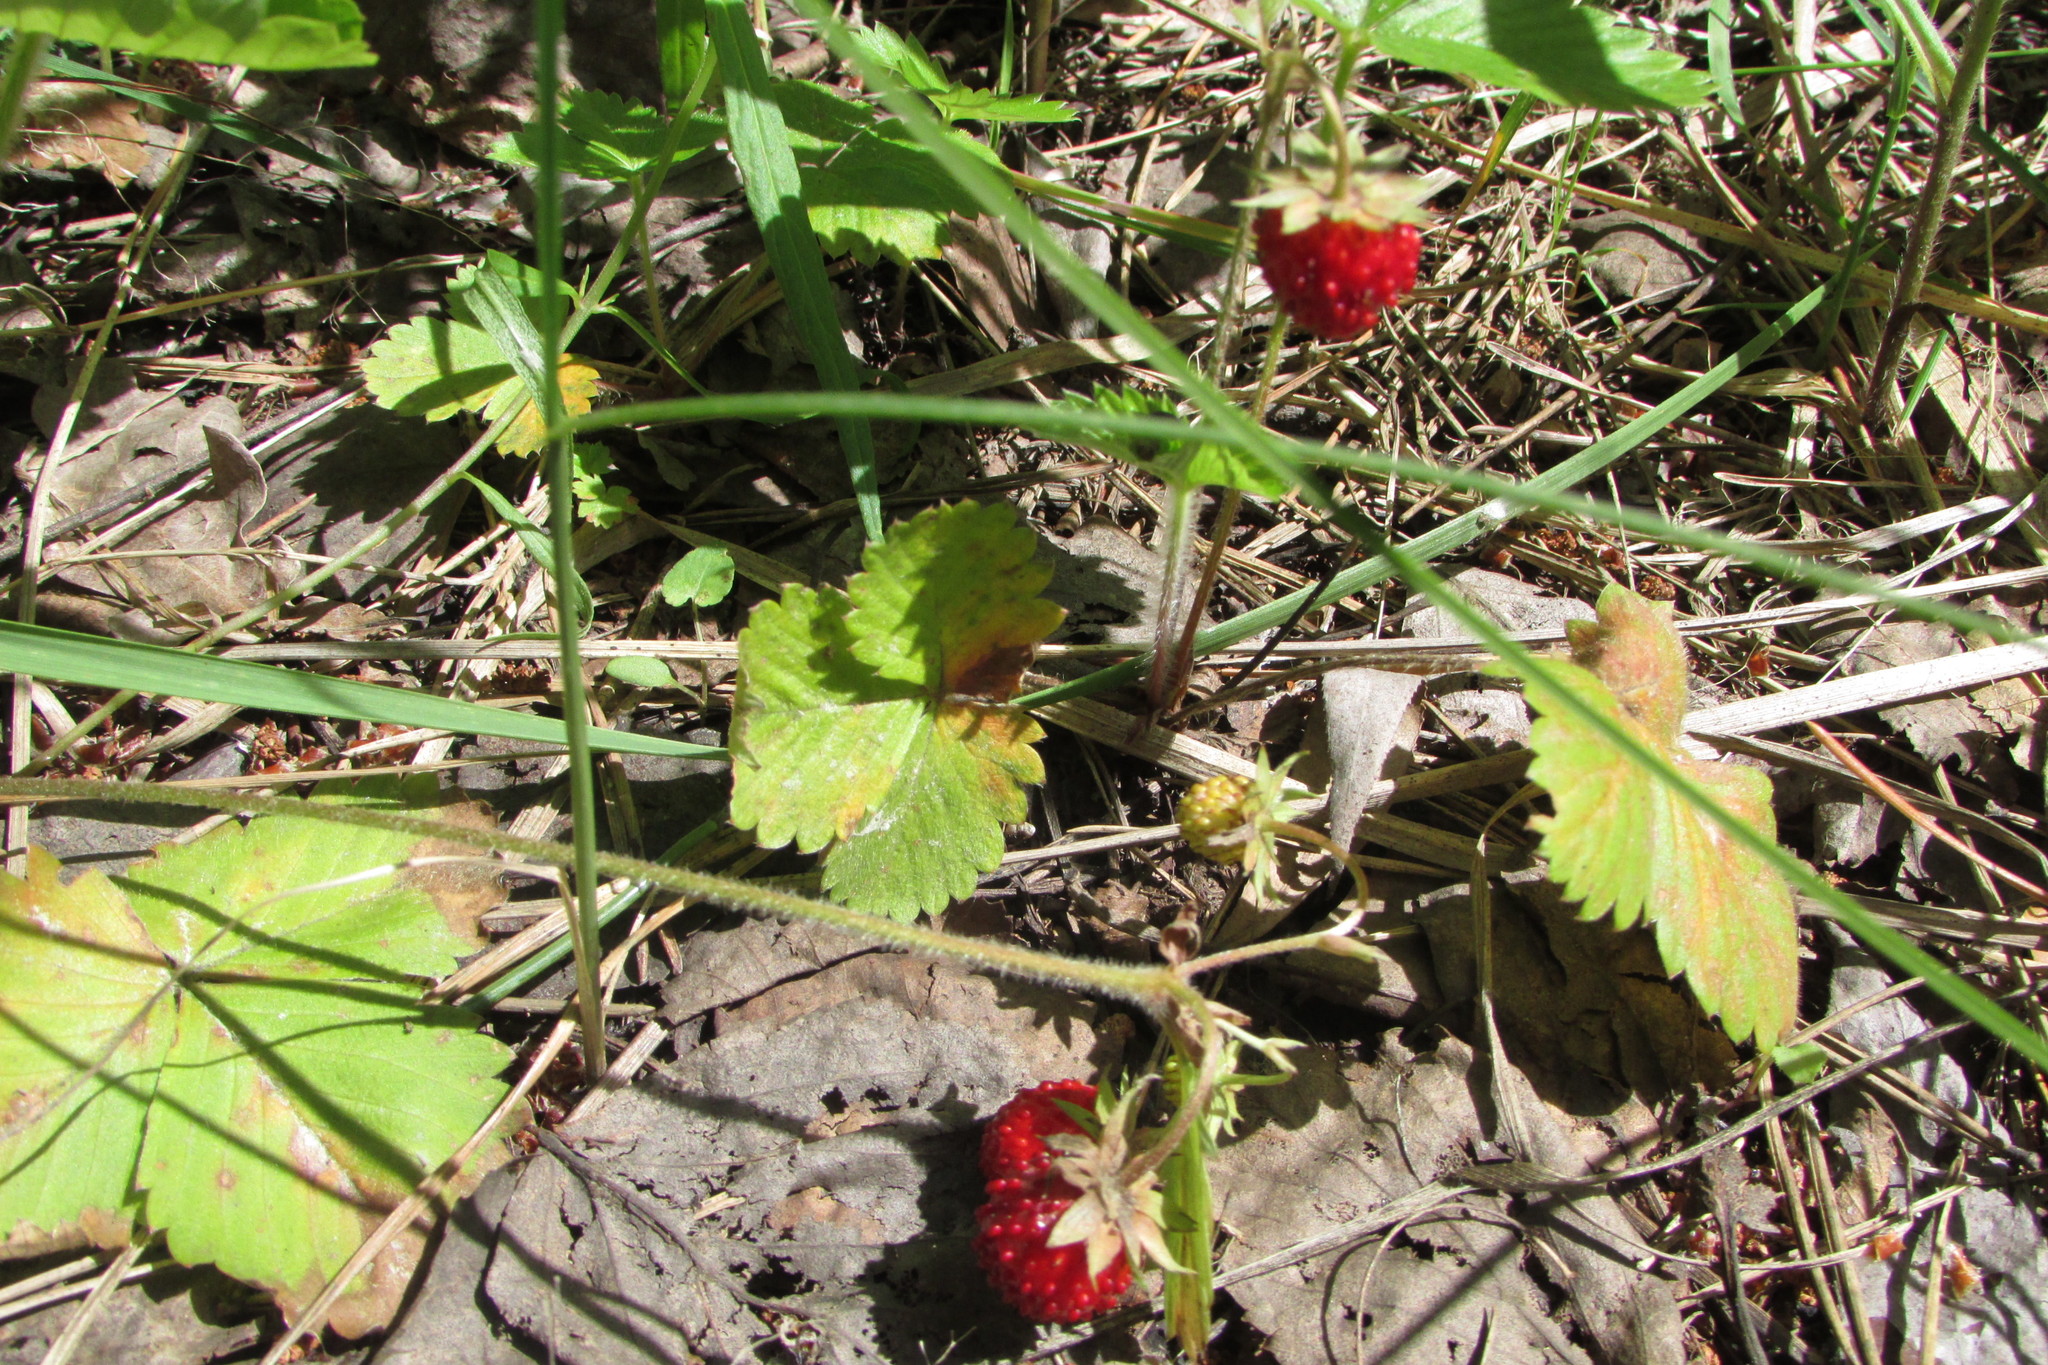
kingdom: Plantae
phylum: Tracheophyta
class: Magnoliopsida
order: Rosales
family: Rosaceae
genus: Fragaria
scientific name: Fragaria vesca
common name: Wild strawberry
